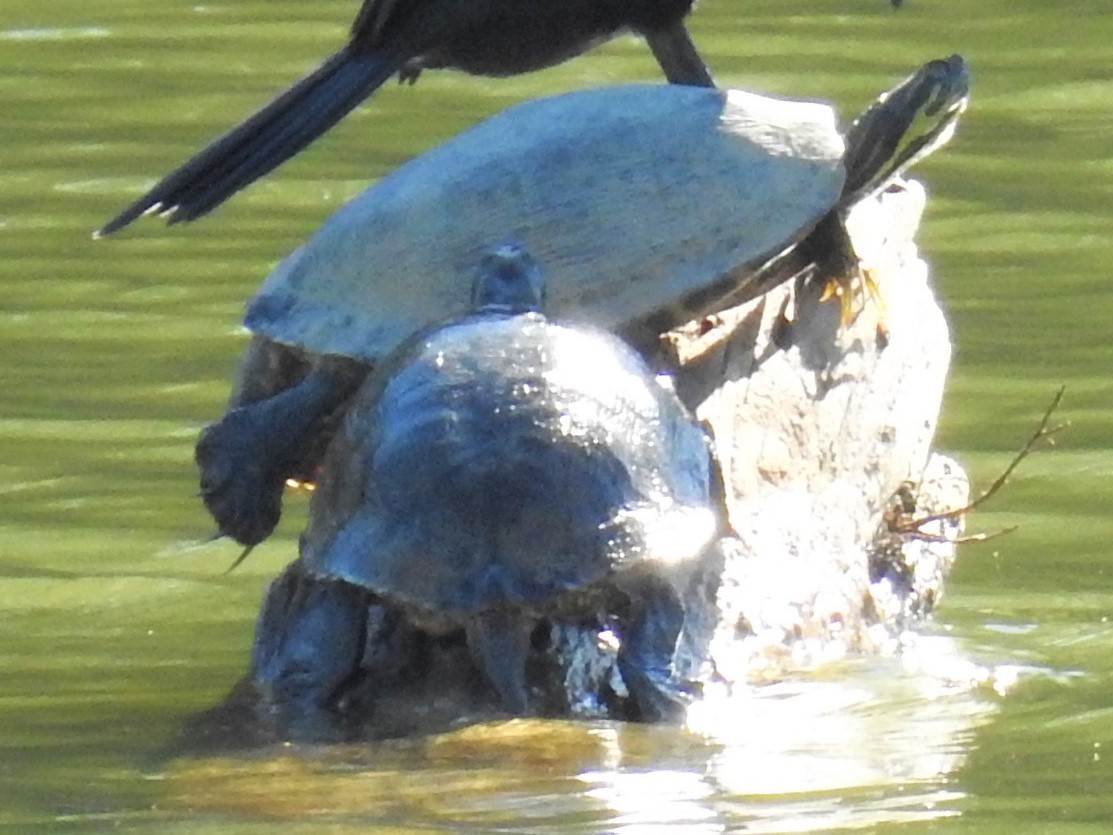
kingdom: Animalia
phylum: Chordata
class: Testudines
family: Emydidae
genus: Pseudemys
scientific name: Pseudemys concinna
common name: Eastern river cooter
